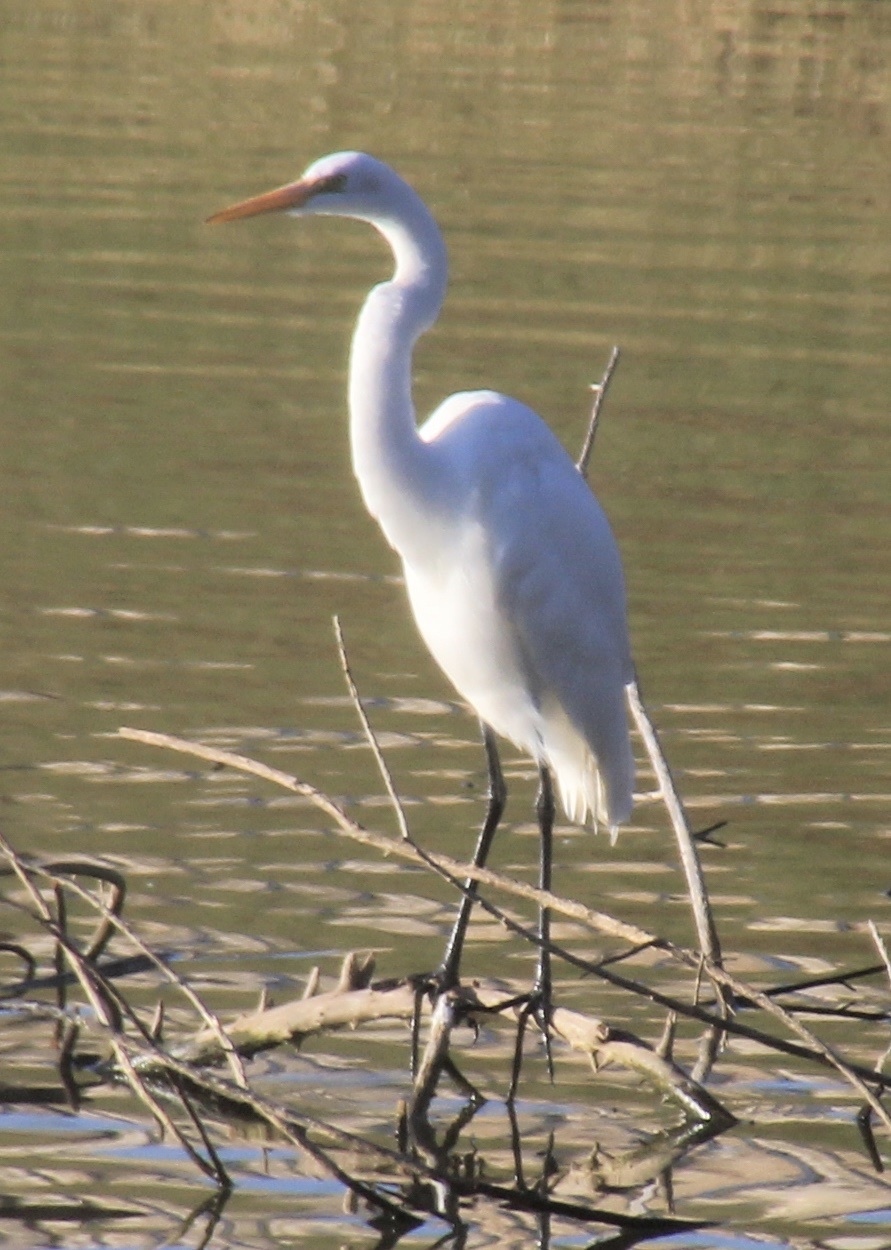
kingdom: Animalia
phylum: Chordata
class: Aves
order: Pelecaniformes
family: Ardeidae
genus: Ardea
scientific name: Ardea alba
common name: Great egret
